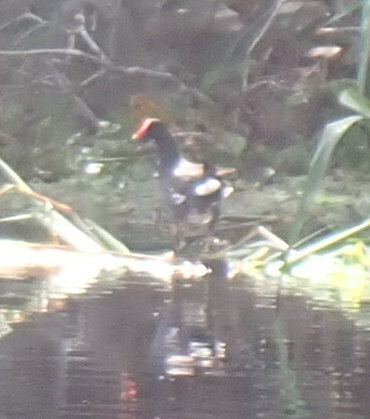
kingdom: Animalia
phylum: Chordata
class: Aves
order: Gruiformes
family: Rallidae
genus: Gallinula
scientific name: Gallinula chloropus
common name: Common moorhen
